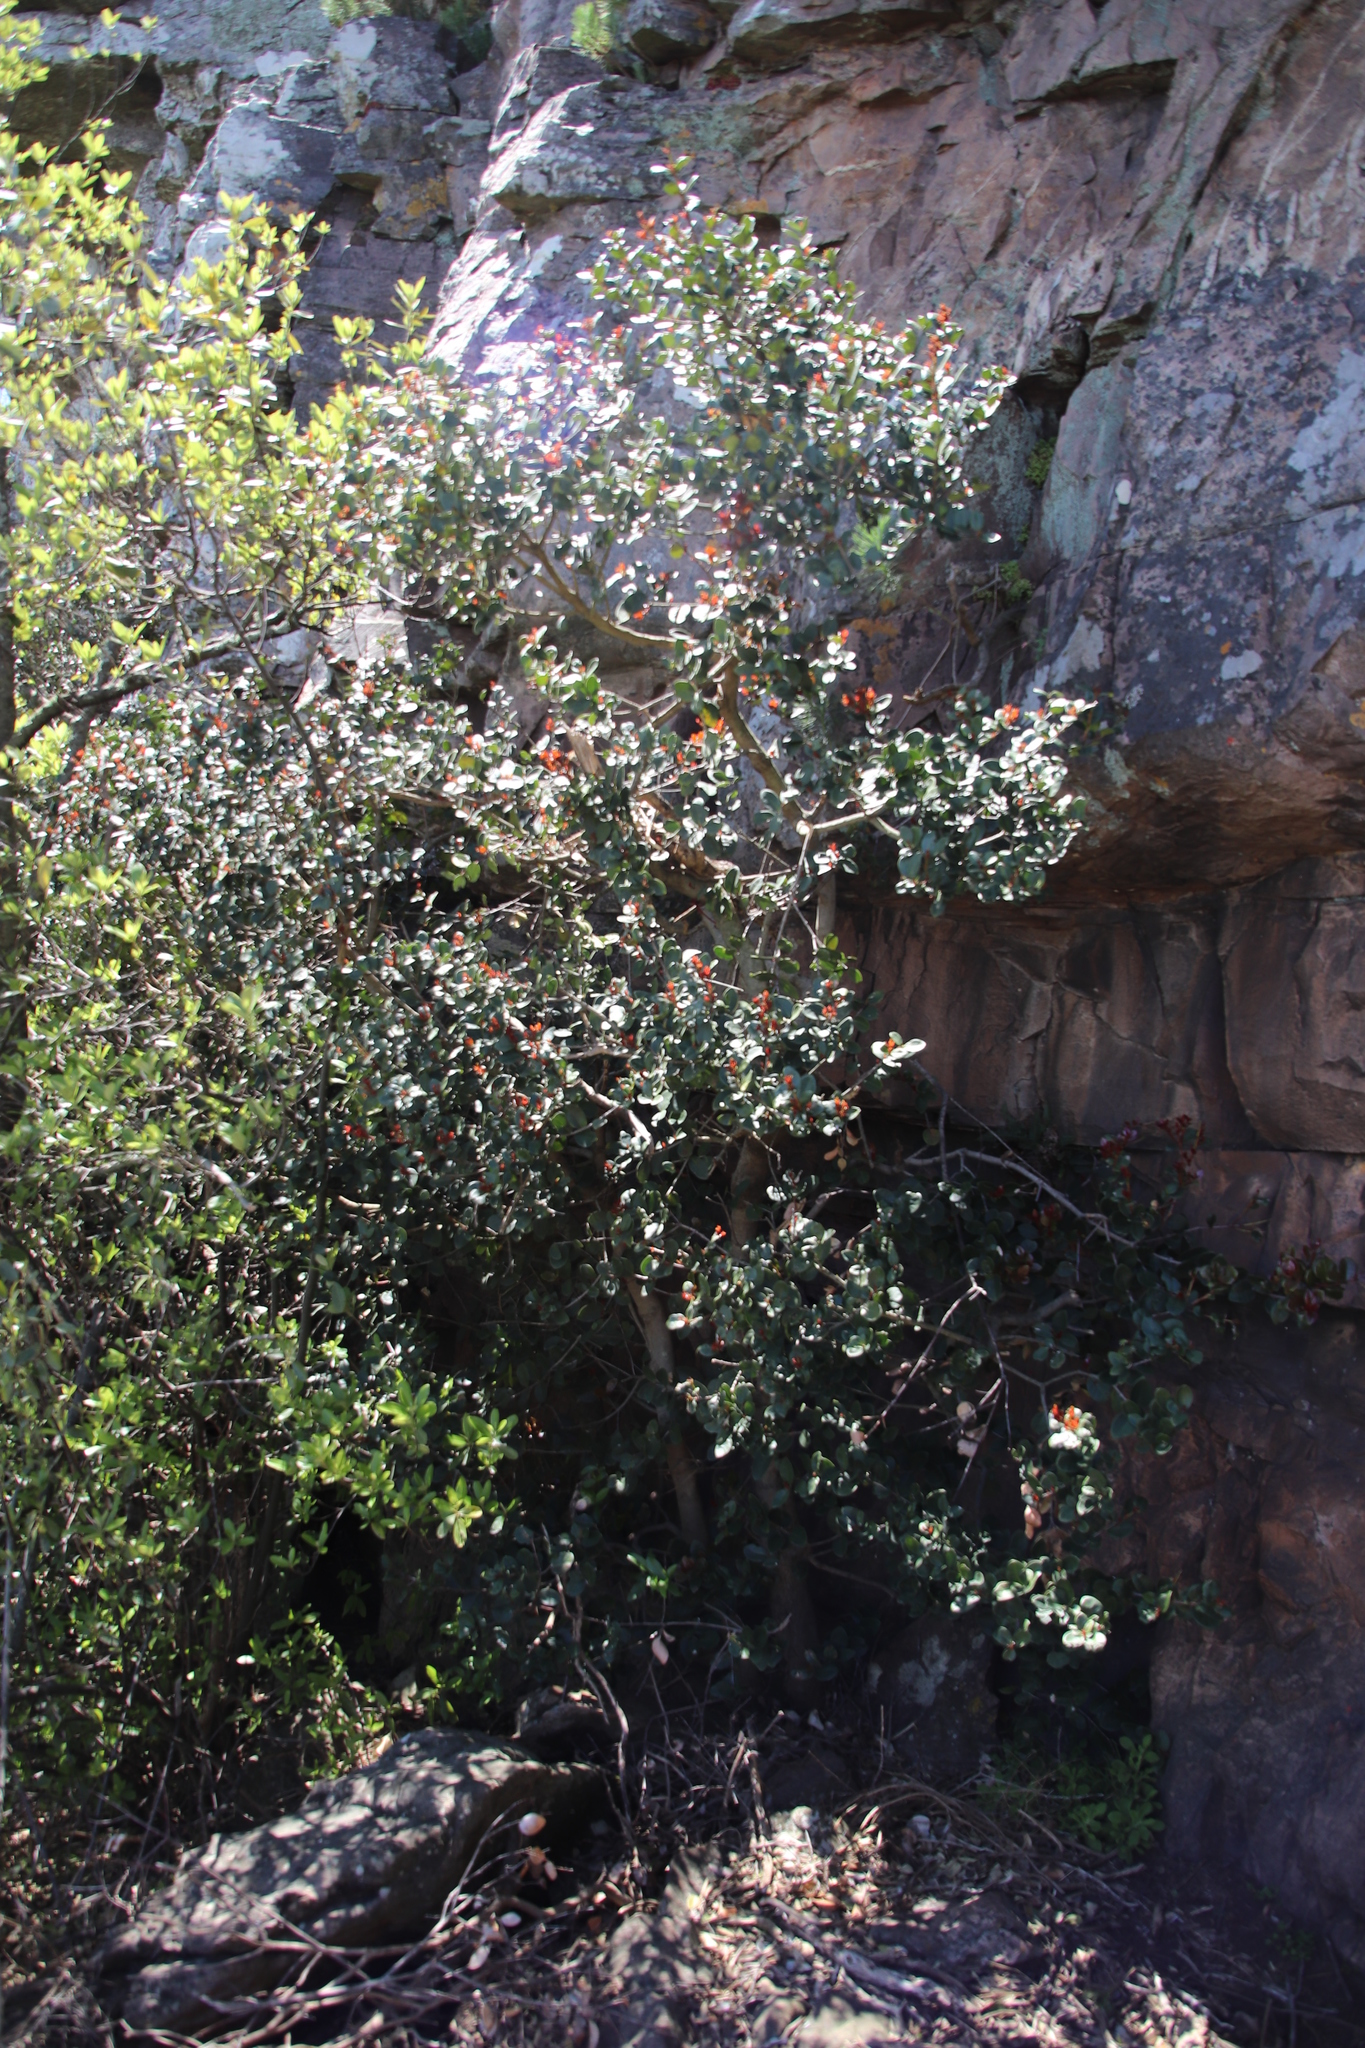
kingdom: Plantae
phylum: Tracheophyta
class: Magnoliopsida
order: Celastrales
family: Celastraceae
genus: Maurocenia
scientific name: Maurocenia frangula
